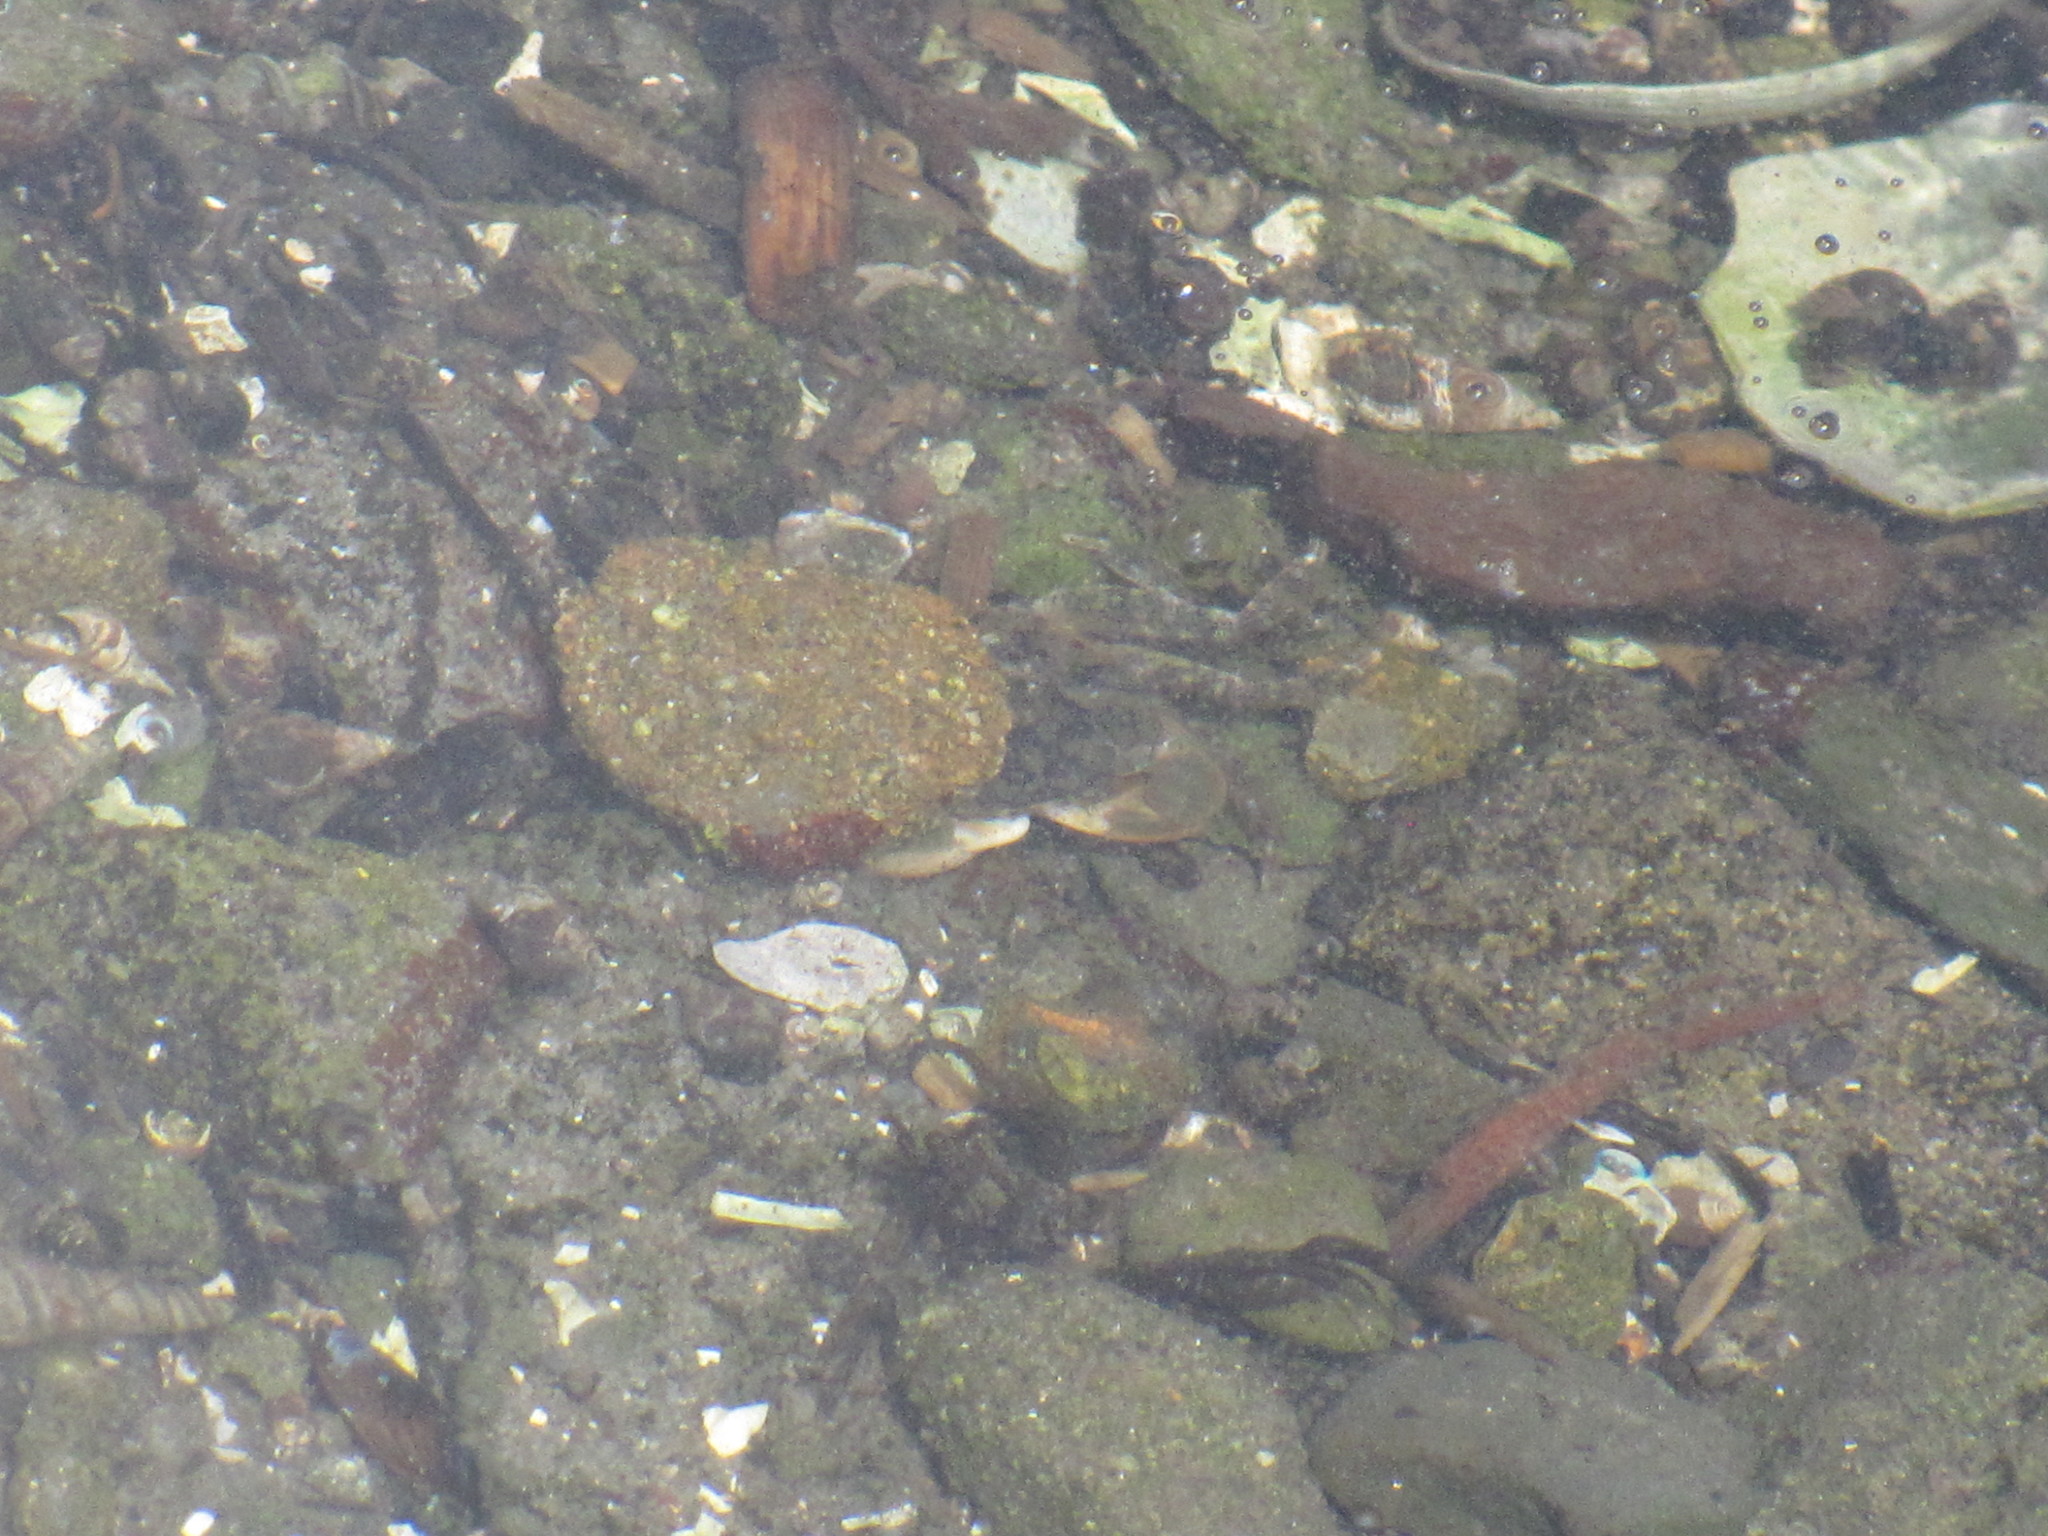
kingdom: Animalia
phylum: Arthropoda
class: Malacostraca
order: Decapoda
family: Varunidae
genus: Hemigrapsus
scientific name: Hemigrapsus oregonensis
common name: Yellow shore crab
